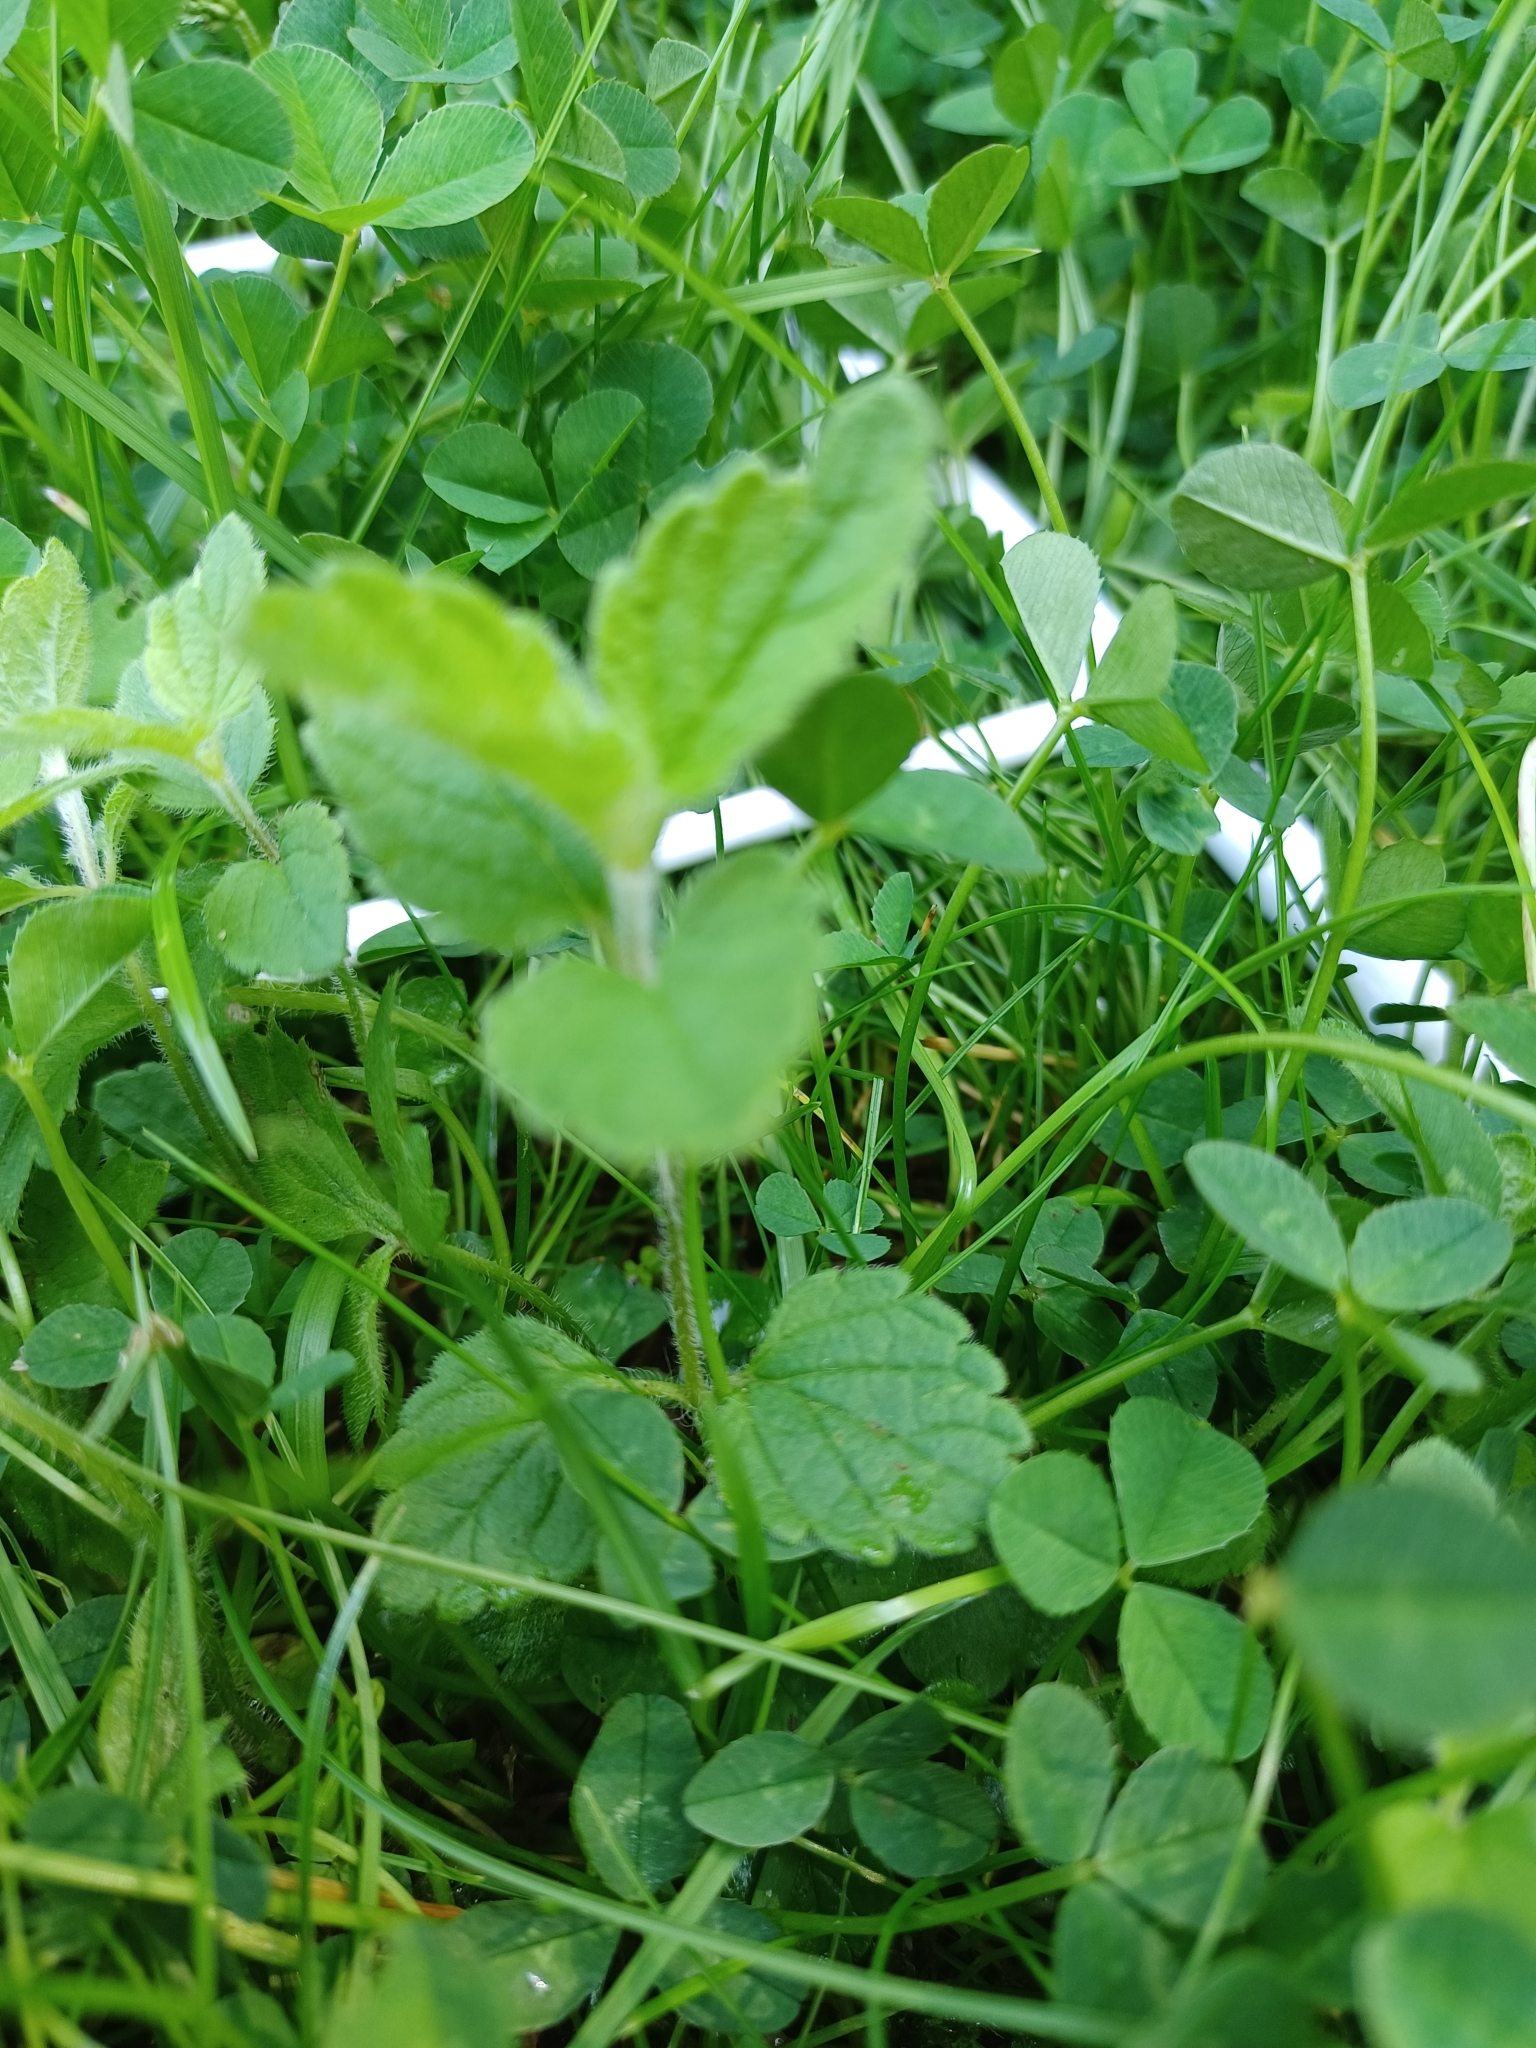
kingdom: Plantae
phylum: Tracheophyta
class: Magnoliopsida
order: Lamiales
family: Plantaginaceae
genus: Veronica
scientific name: Veronica montana
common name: Wood speedwell
